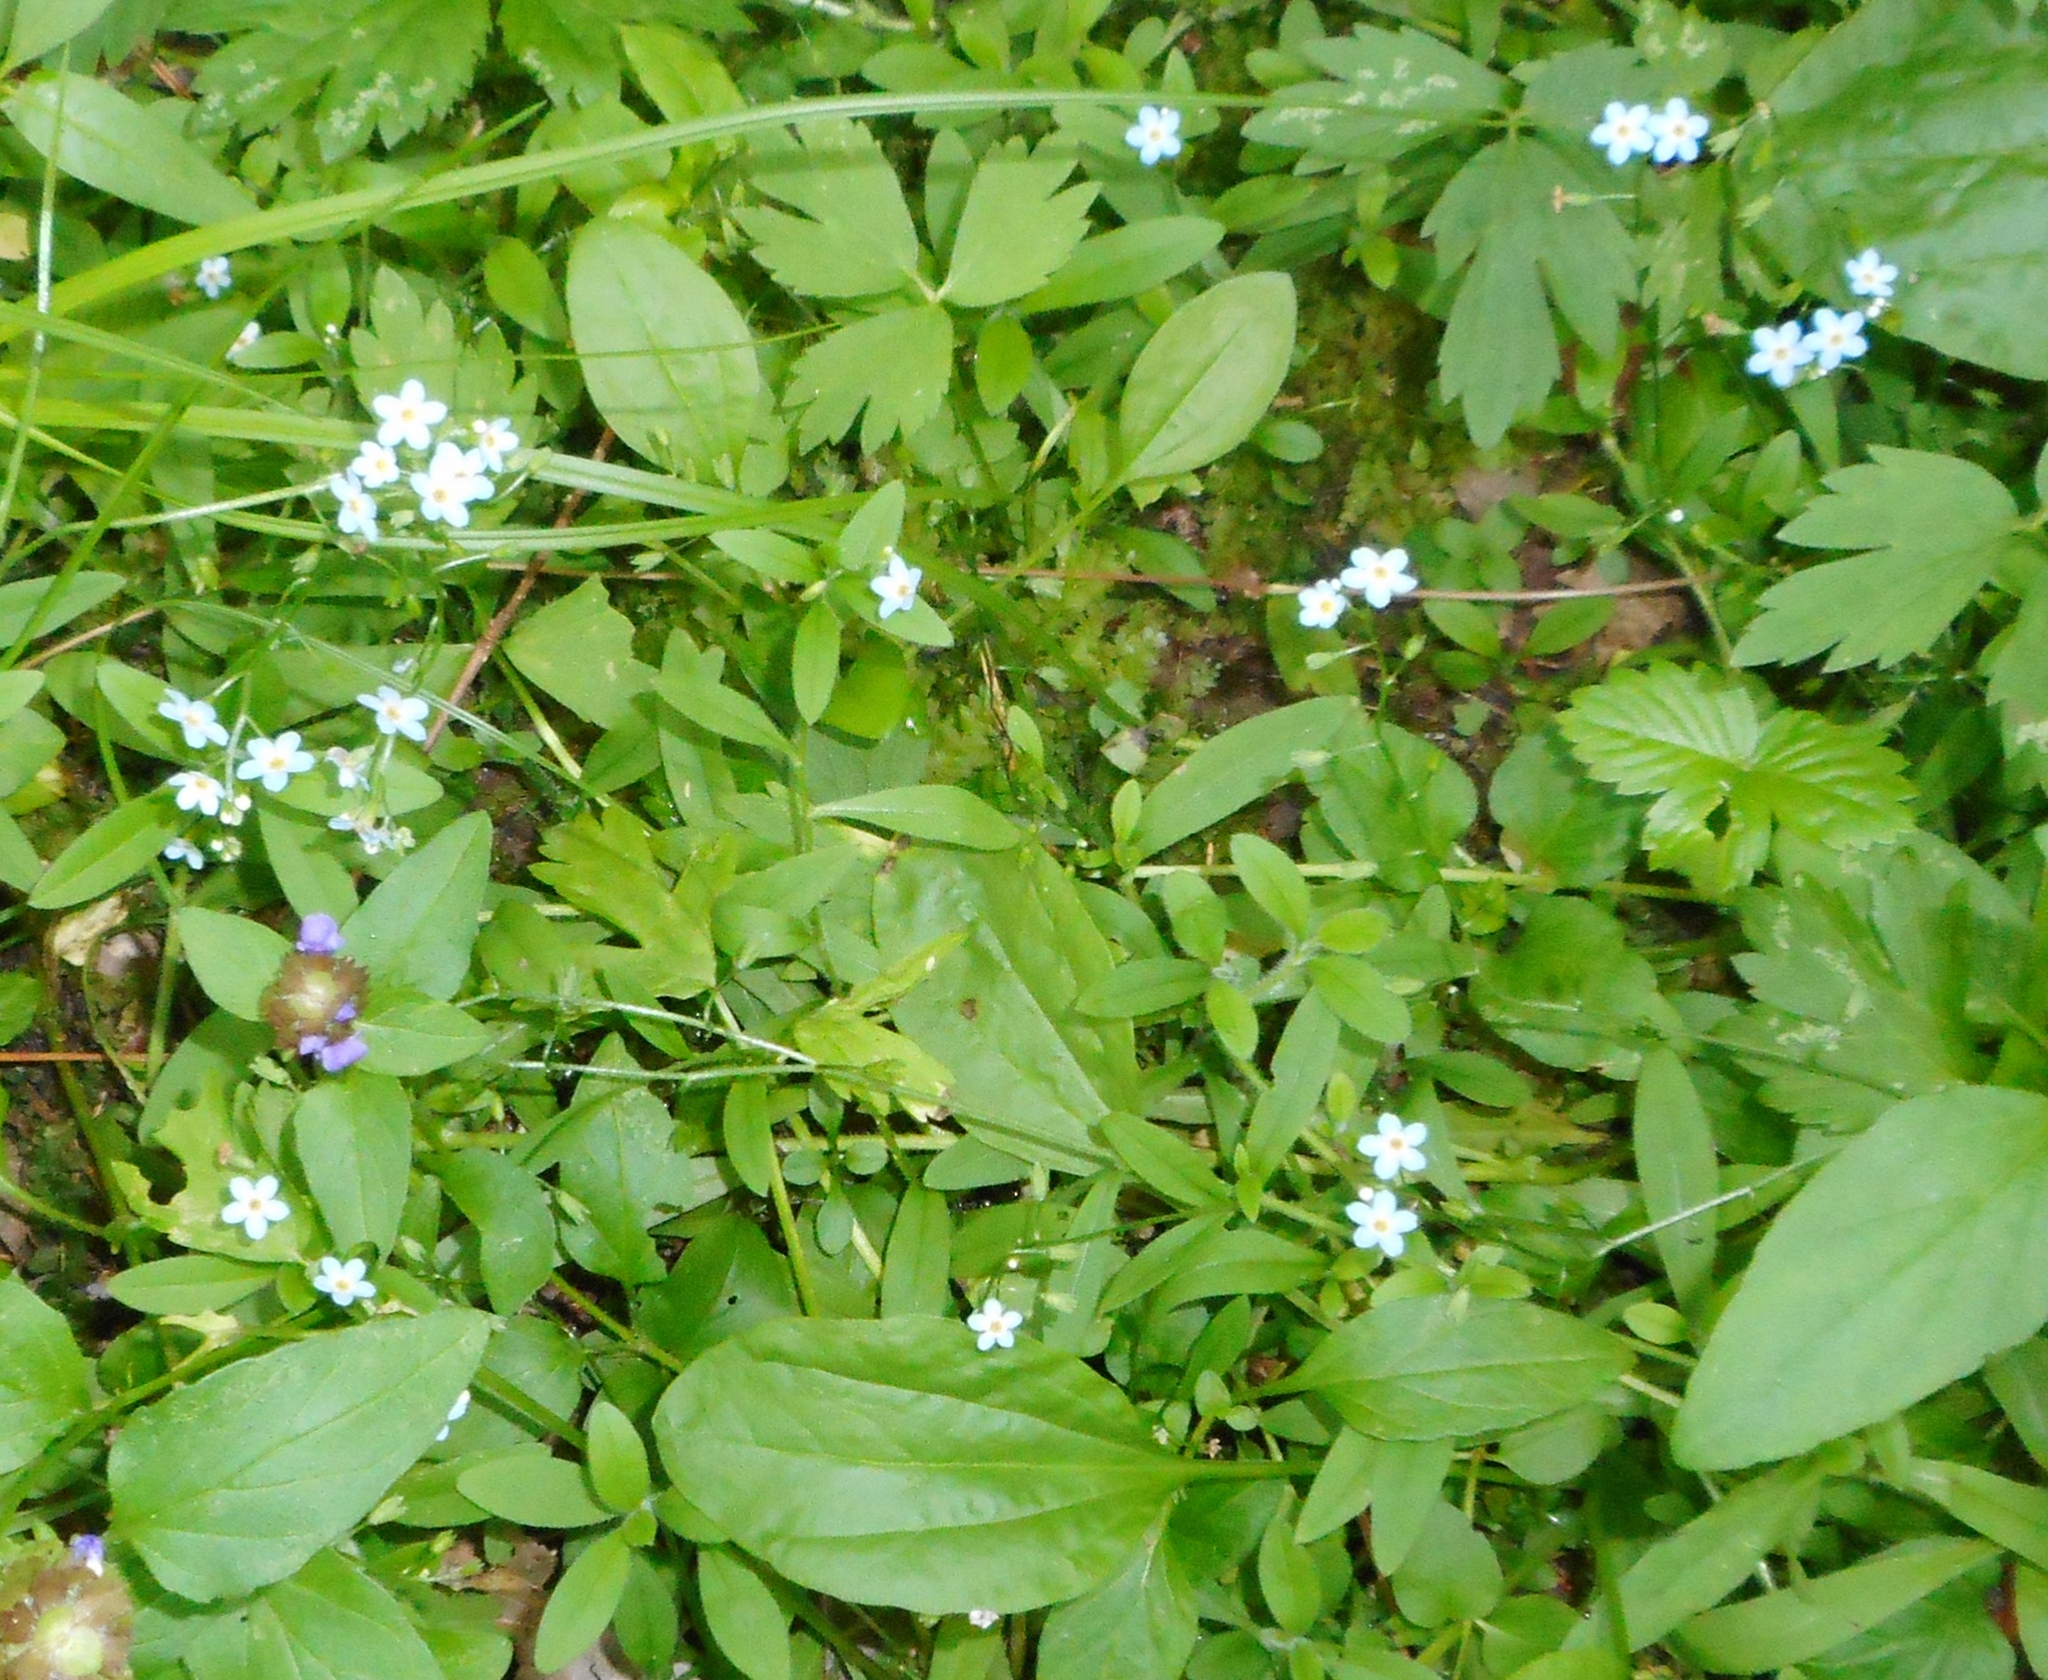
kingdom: Plantae
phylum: Tracheophyta
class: Magnoliopsida
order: Boraginales
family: Boraginaceae
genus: Myosotis
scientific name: Myosotis scorpioides
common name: Water forget-me-not
